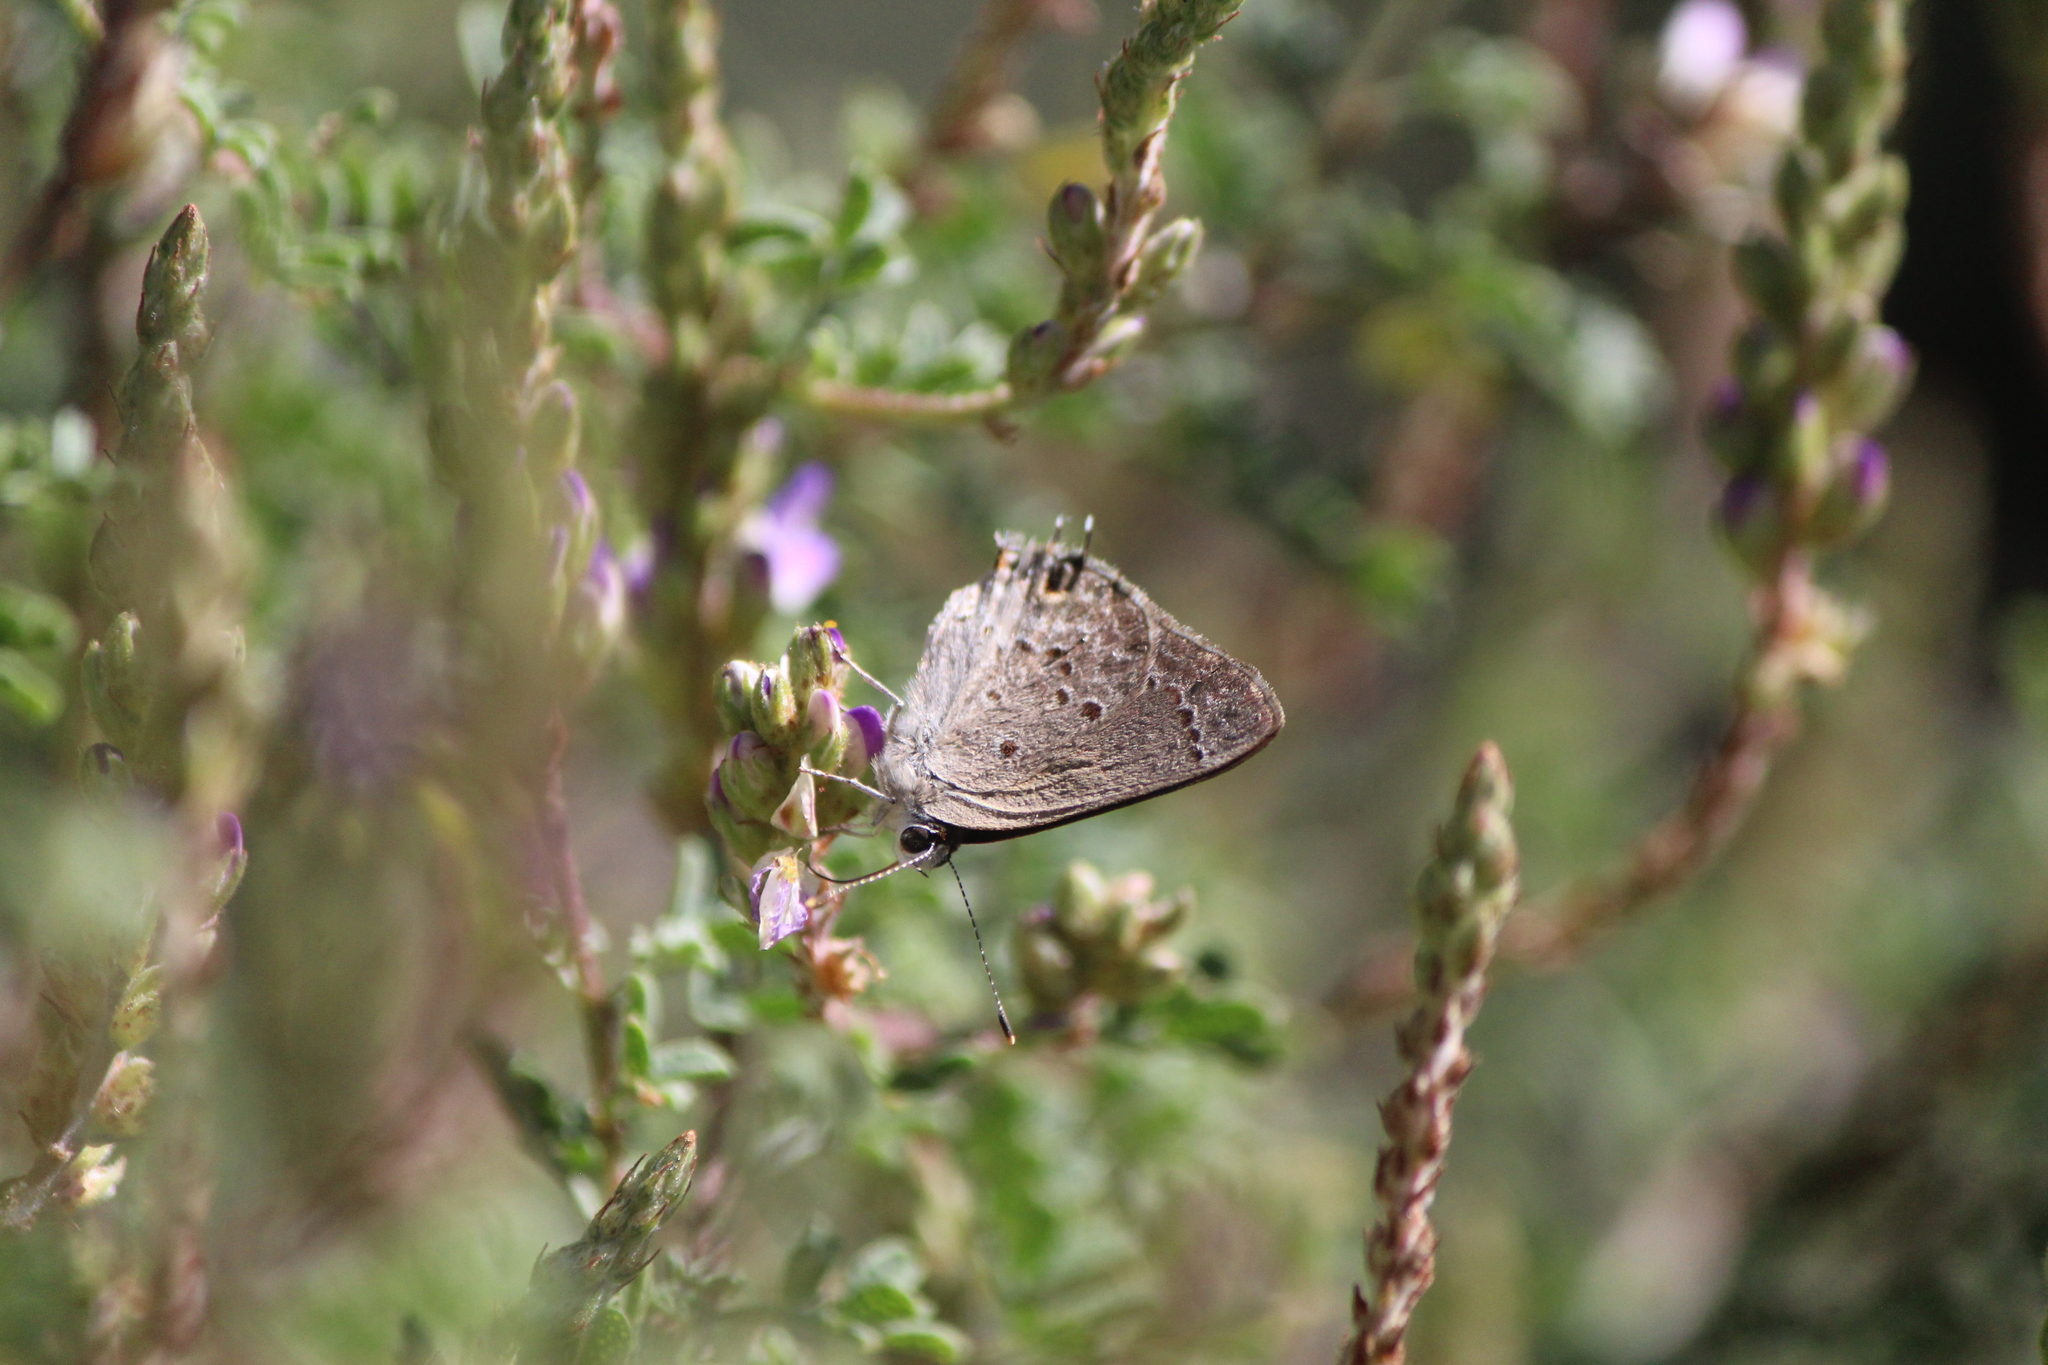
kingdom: Animalia
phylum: Arthropoda
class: Insecta
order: Lepidoptera
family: Lycaenidae
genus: Callicista
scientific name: Callicista columella
